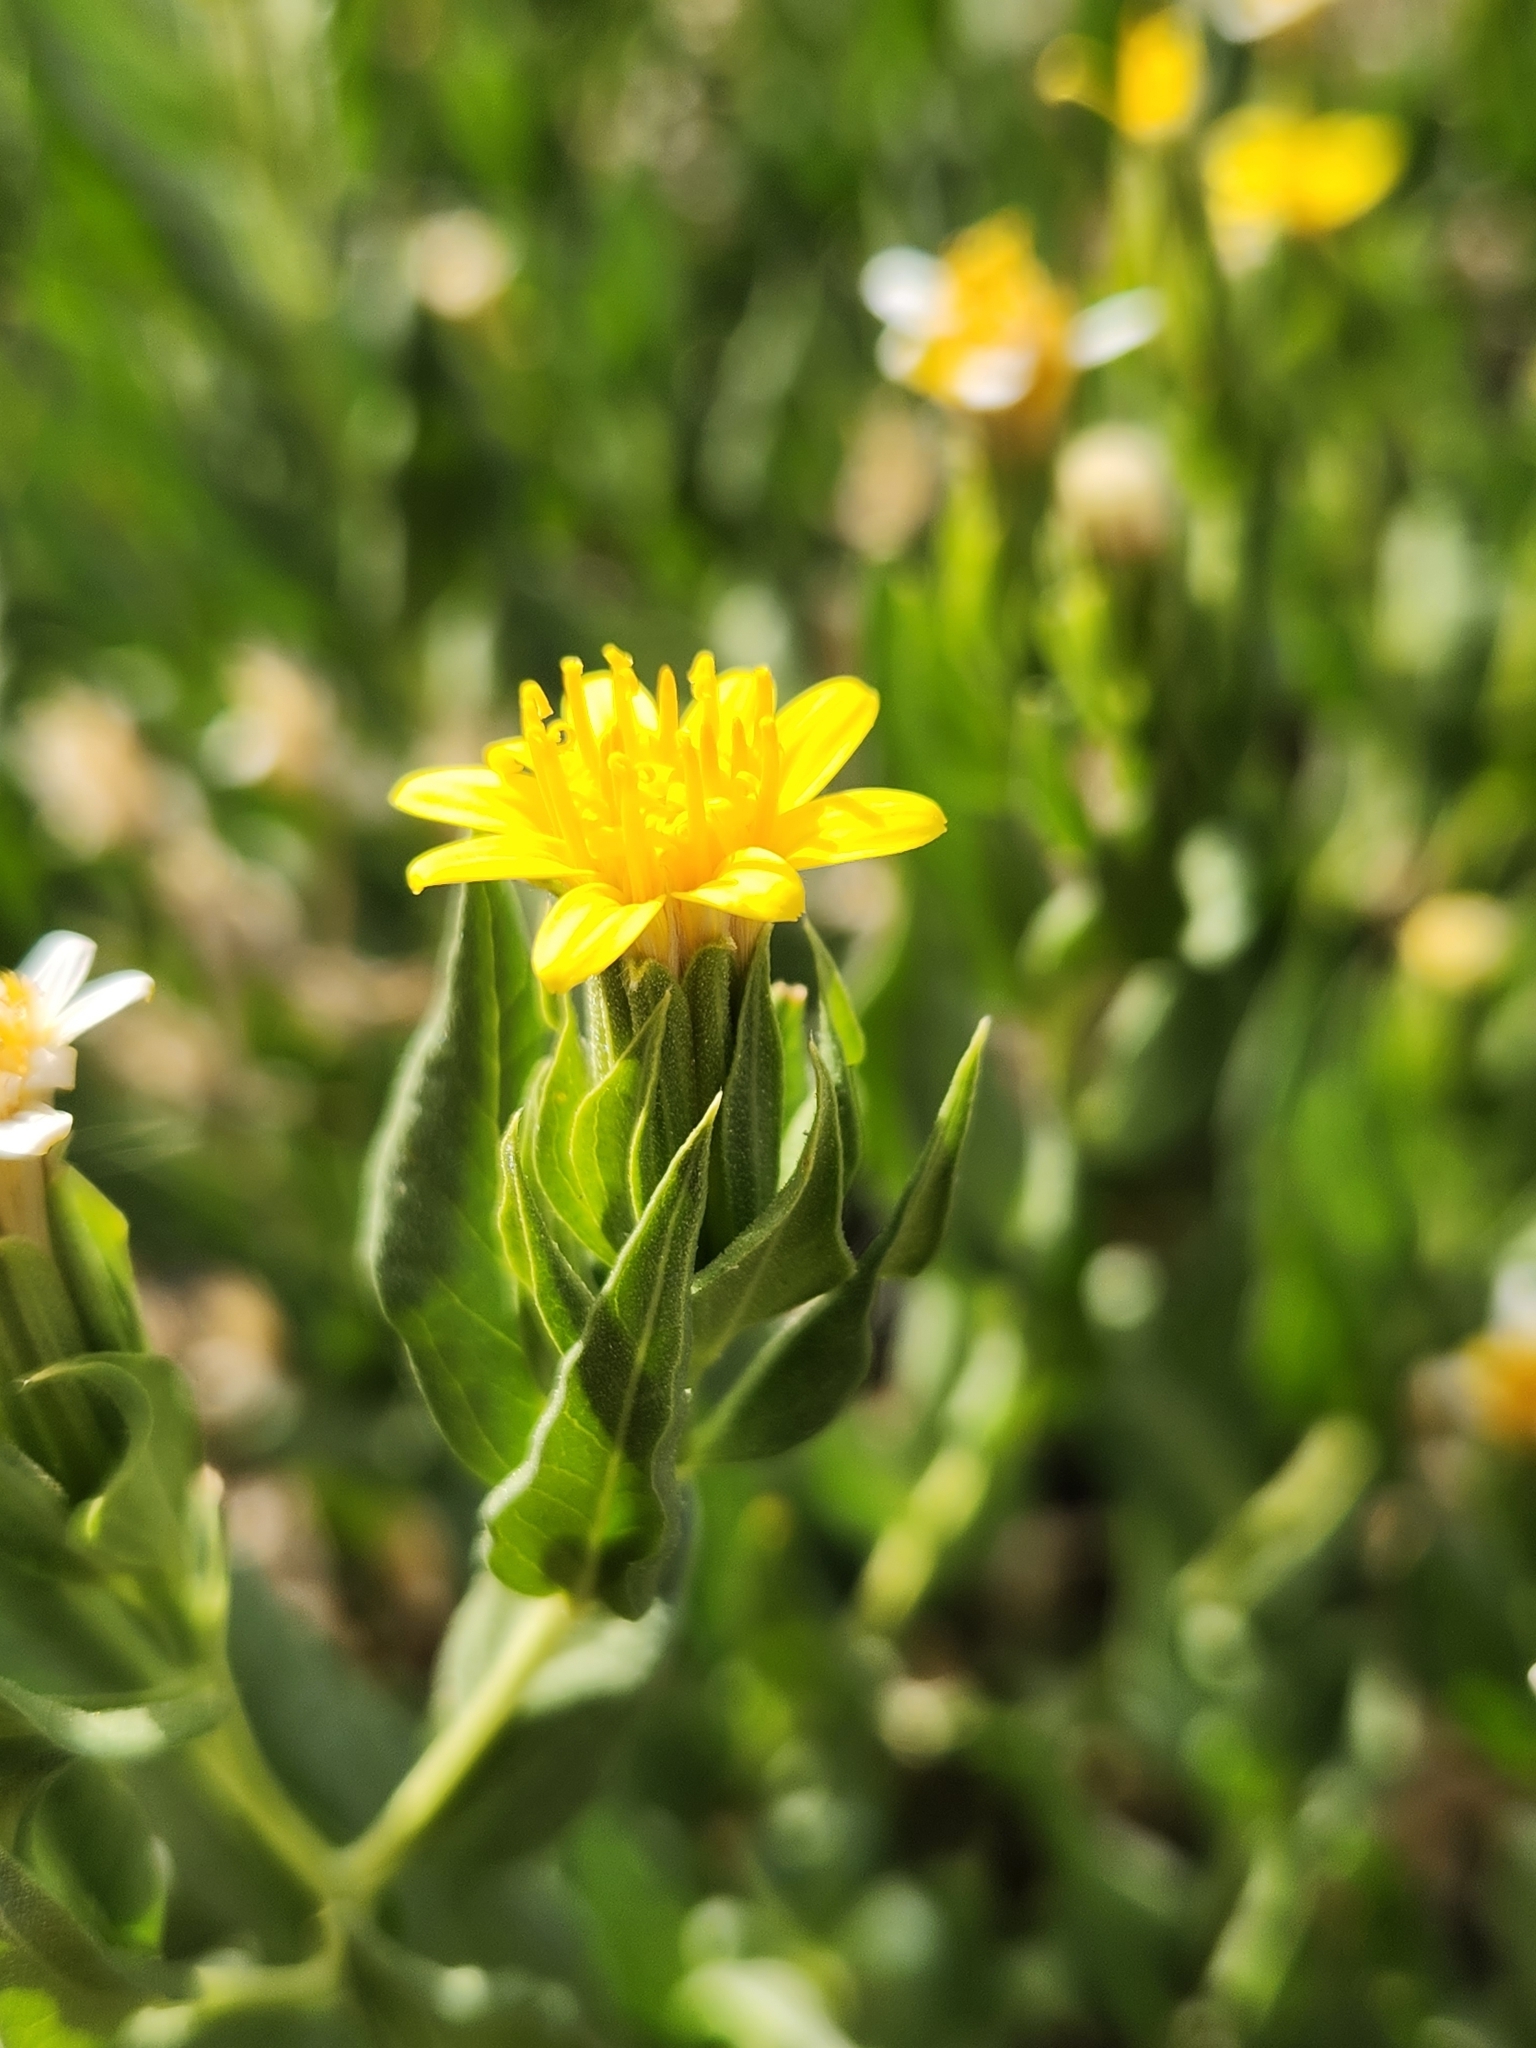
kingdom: Plantae
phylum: Tracheophyta
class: Magnoliopsida
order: Asterales
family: Asteraceae
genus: Trixis
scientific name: Trixis californica
